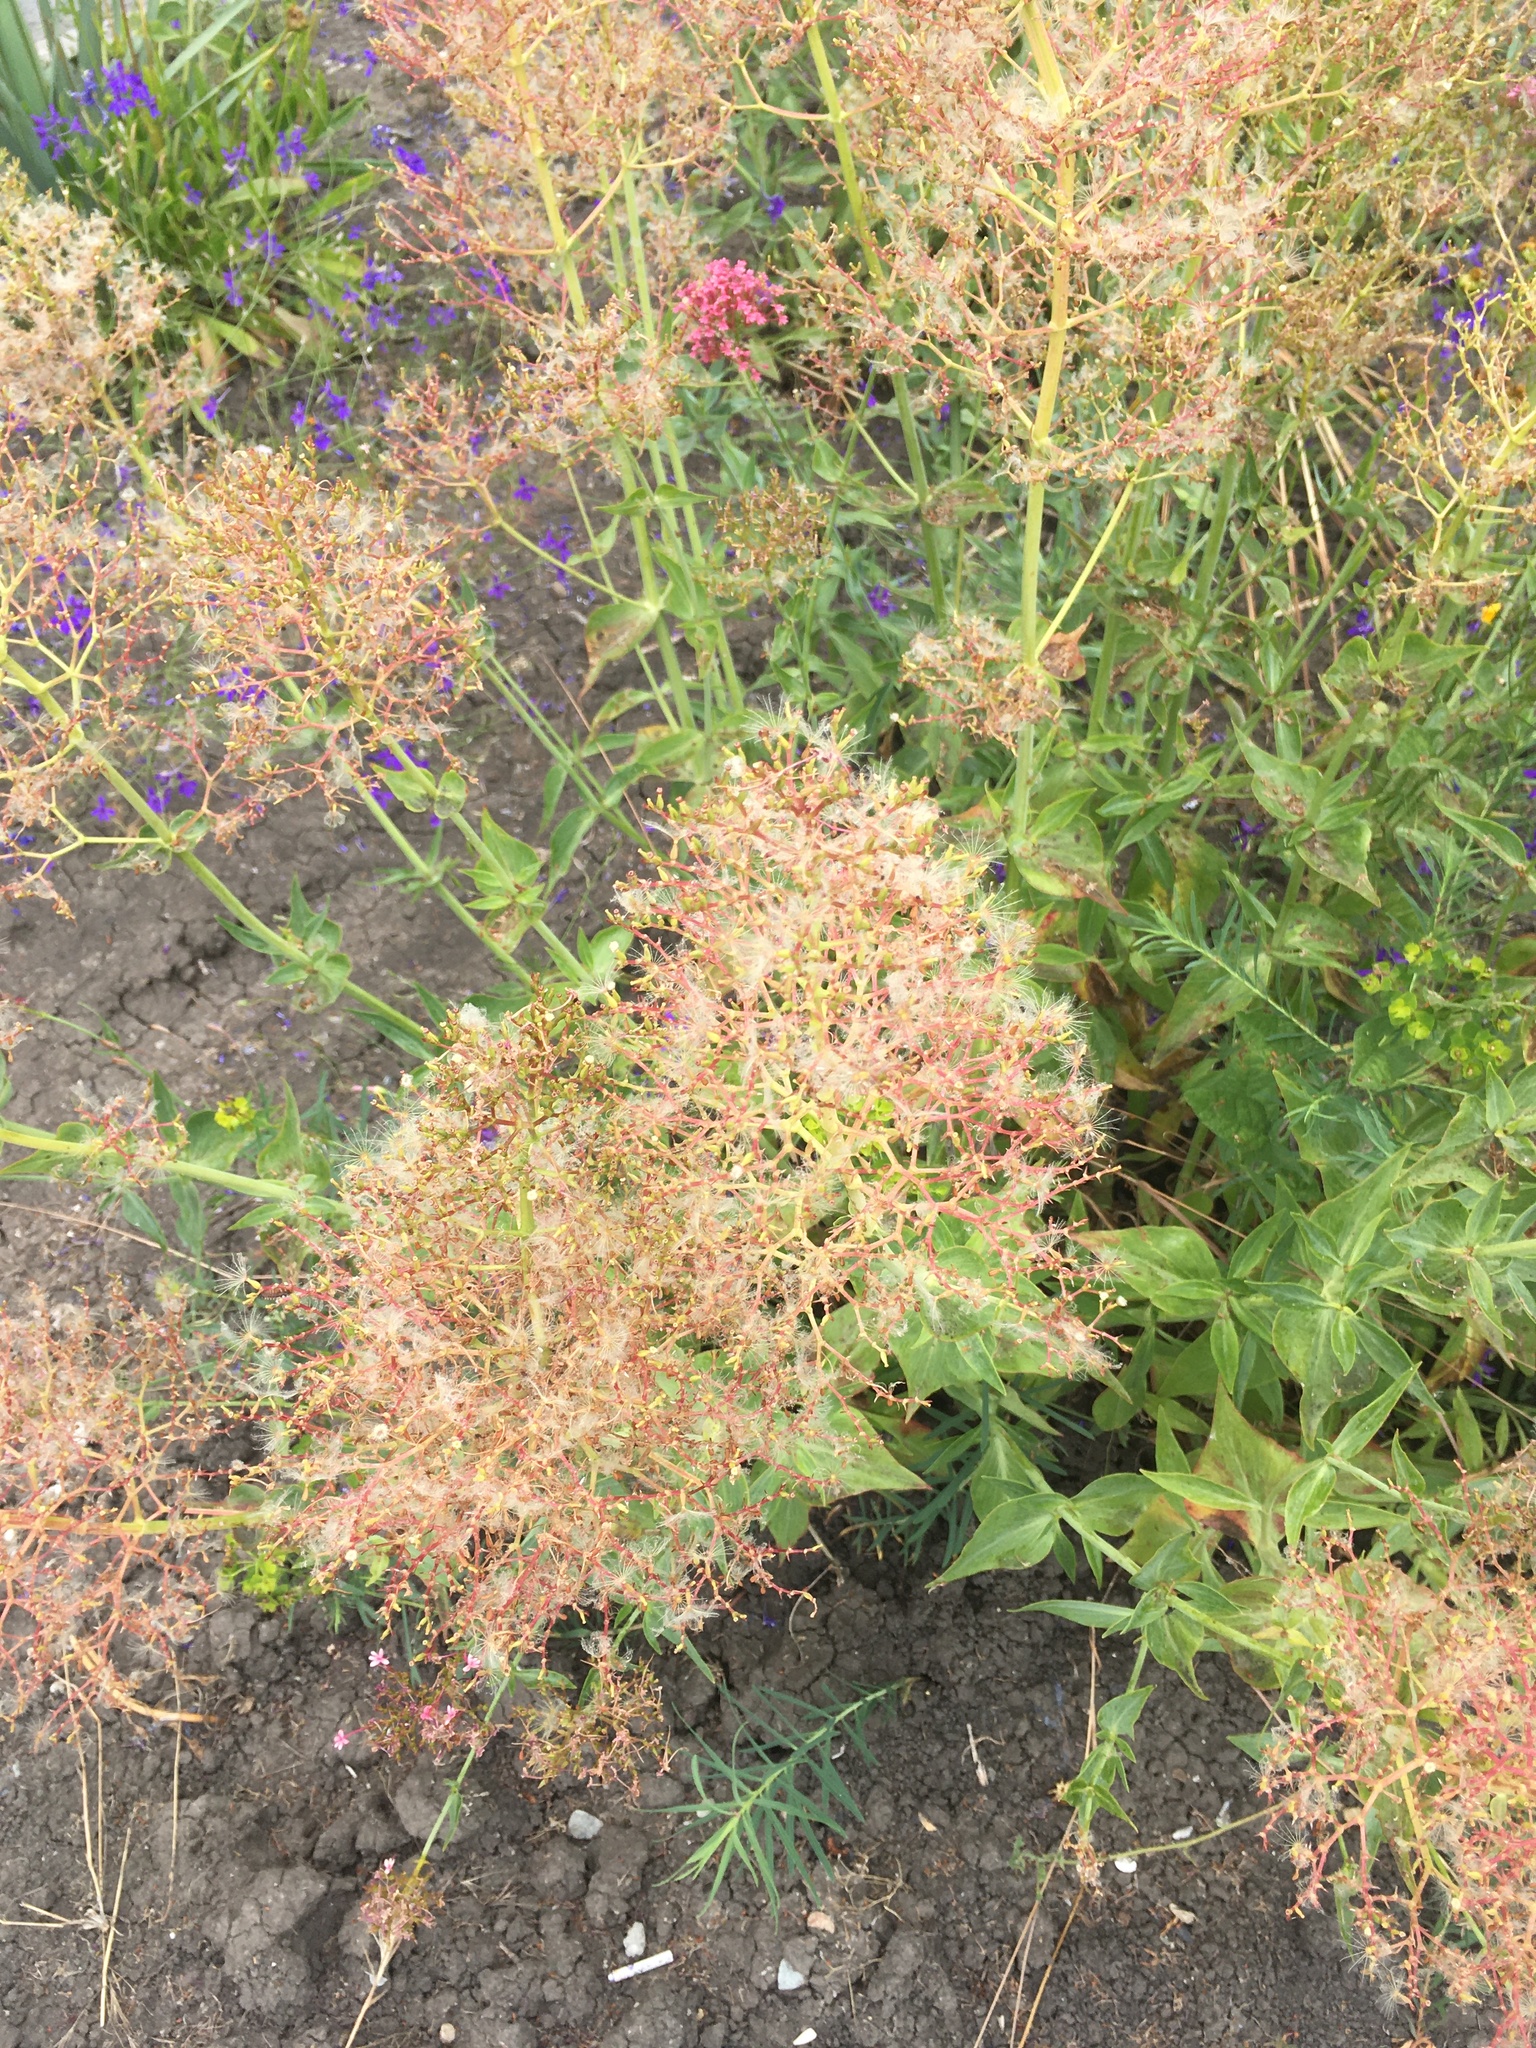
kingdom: Plantae
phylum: Tracheophyta
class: Magnoliopsida
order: Dipsacales
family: Caprifoliaceae
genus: Centranthus
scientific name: Centranthus ruber
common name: Red valerian
